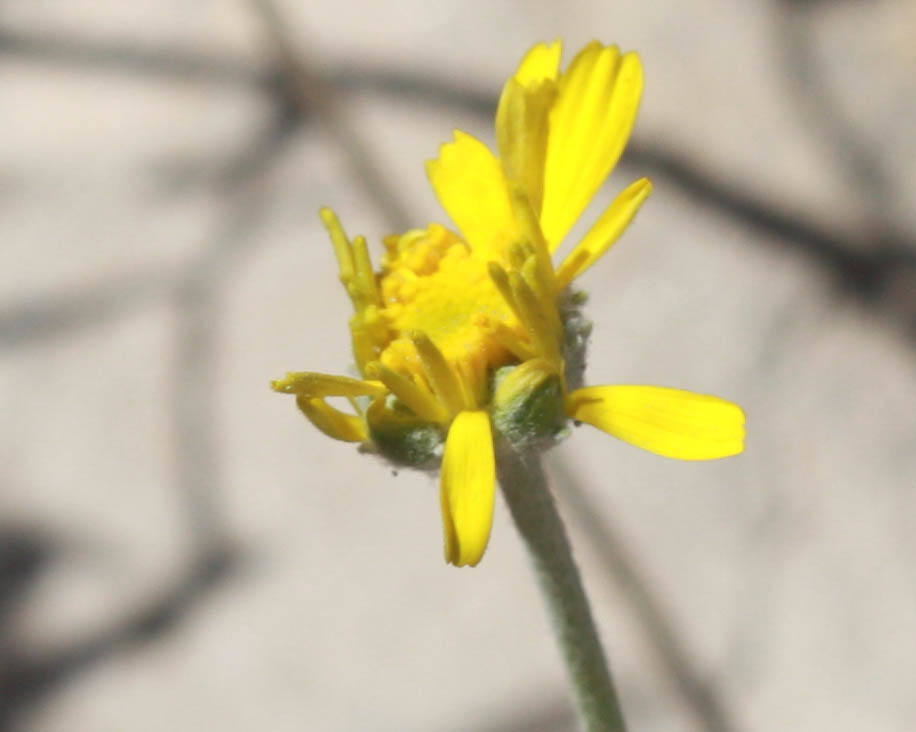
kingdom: Plantae
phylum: Tracheophyta
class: Magnoliopsida
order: Asterales
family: Asteraceae
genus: Baileya
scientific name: Baileya multiradiata
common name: Desert-marigold
